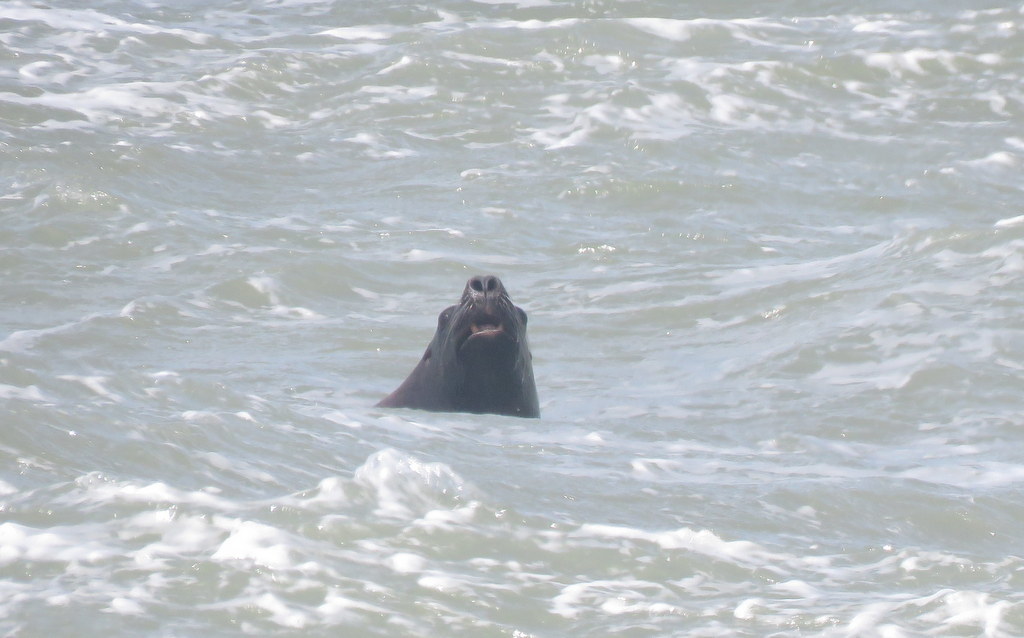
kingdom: Animalia
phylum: Chordata
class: Mammalia
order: Carnivora
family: Otariidae
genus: Otaria
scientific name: Otaria byronia
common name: South american sea lion
